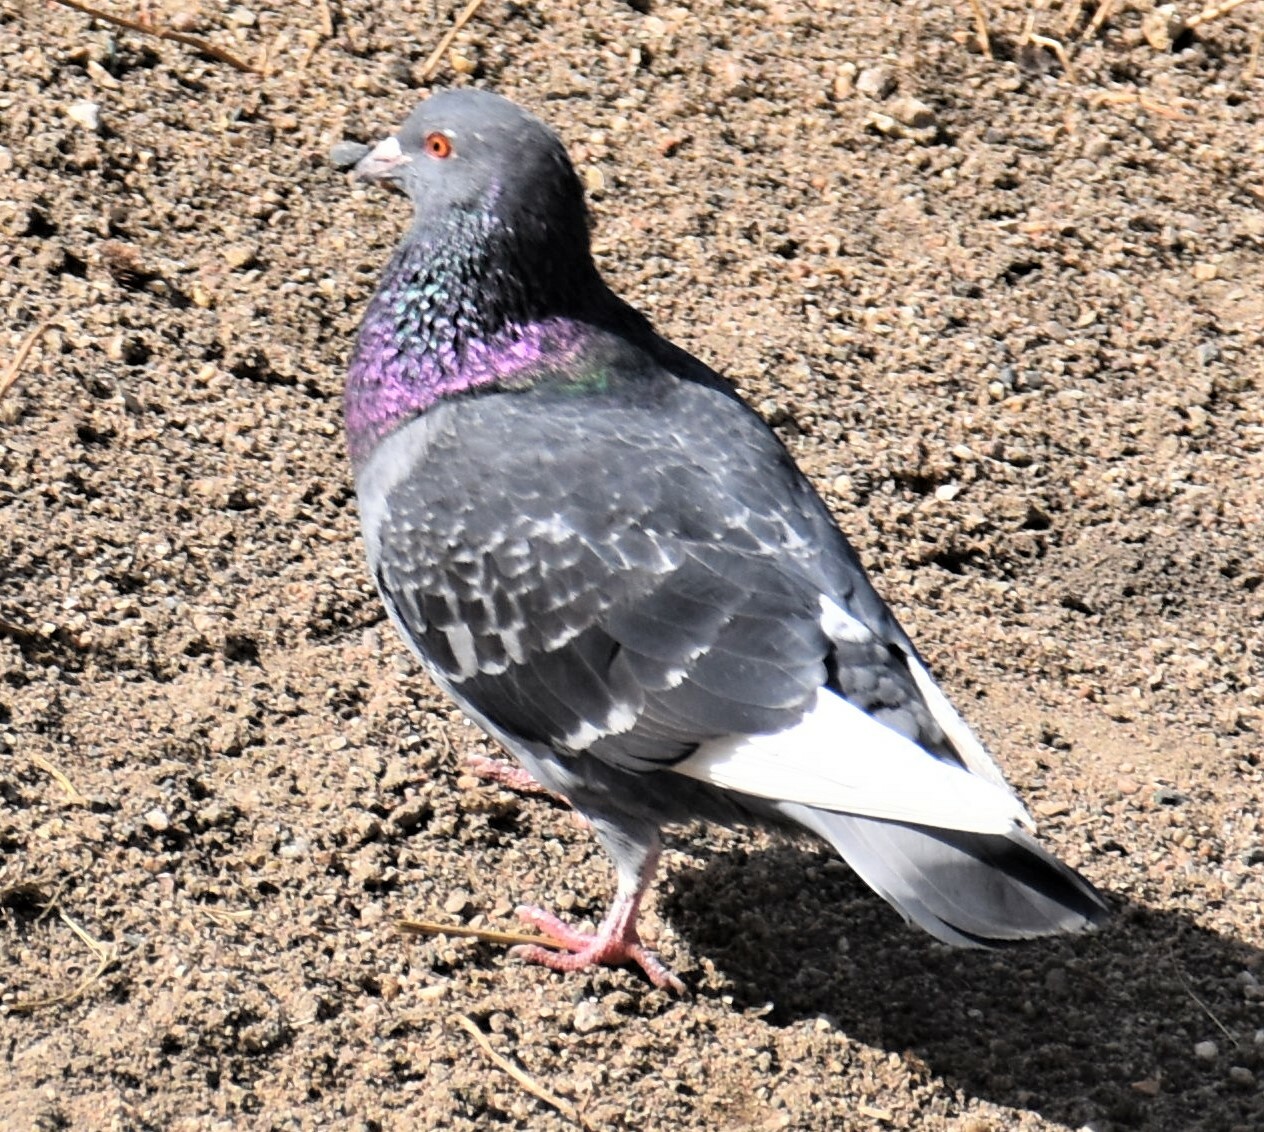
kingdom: Animalia
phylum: Chordata
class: Aves
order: Columbiformes
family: Columbidae
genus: Columba
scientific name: Columba livia
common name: Rock pigeon
